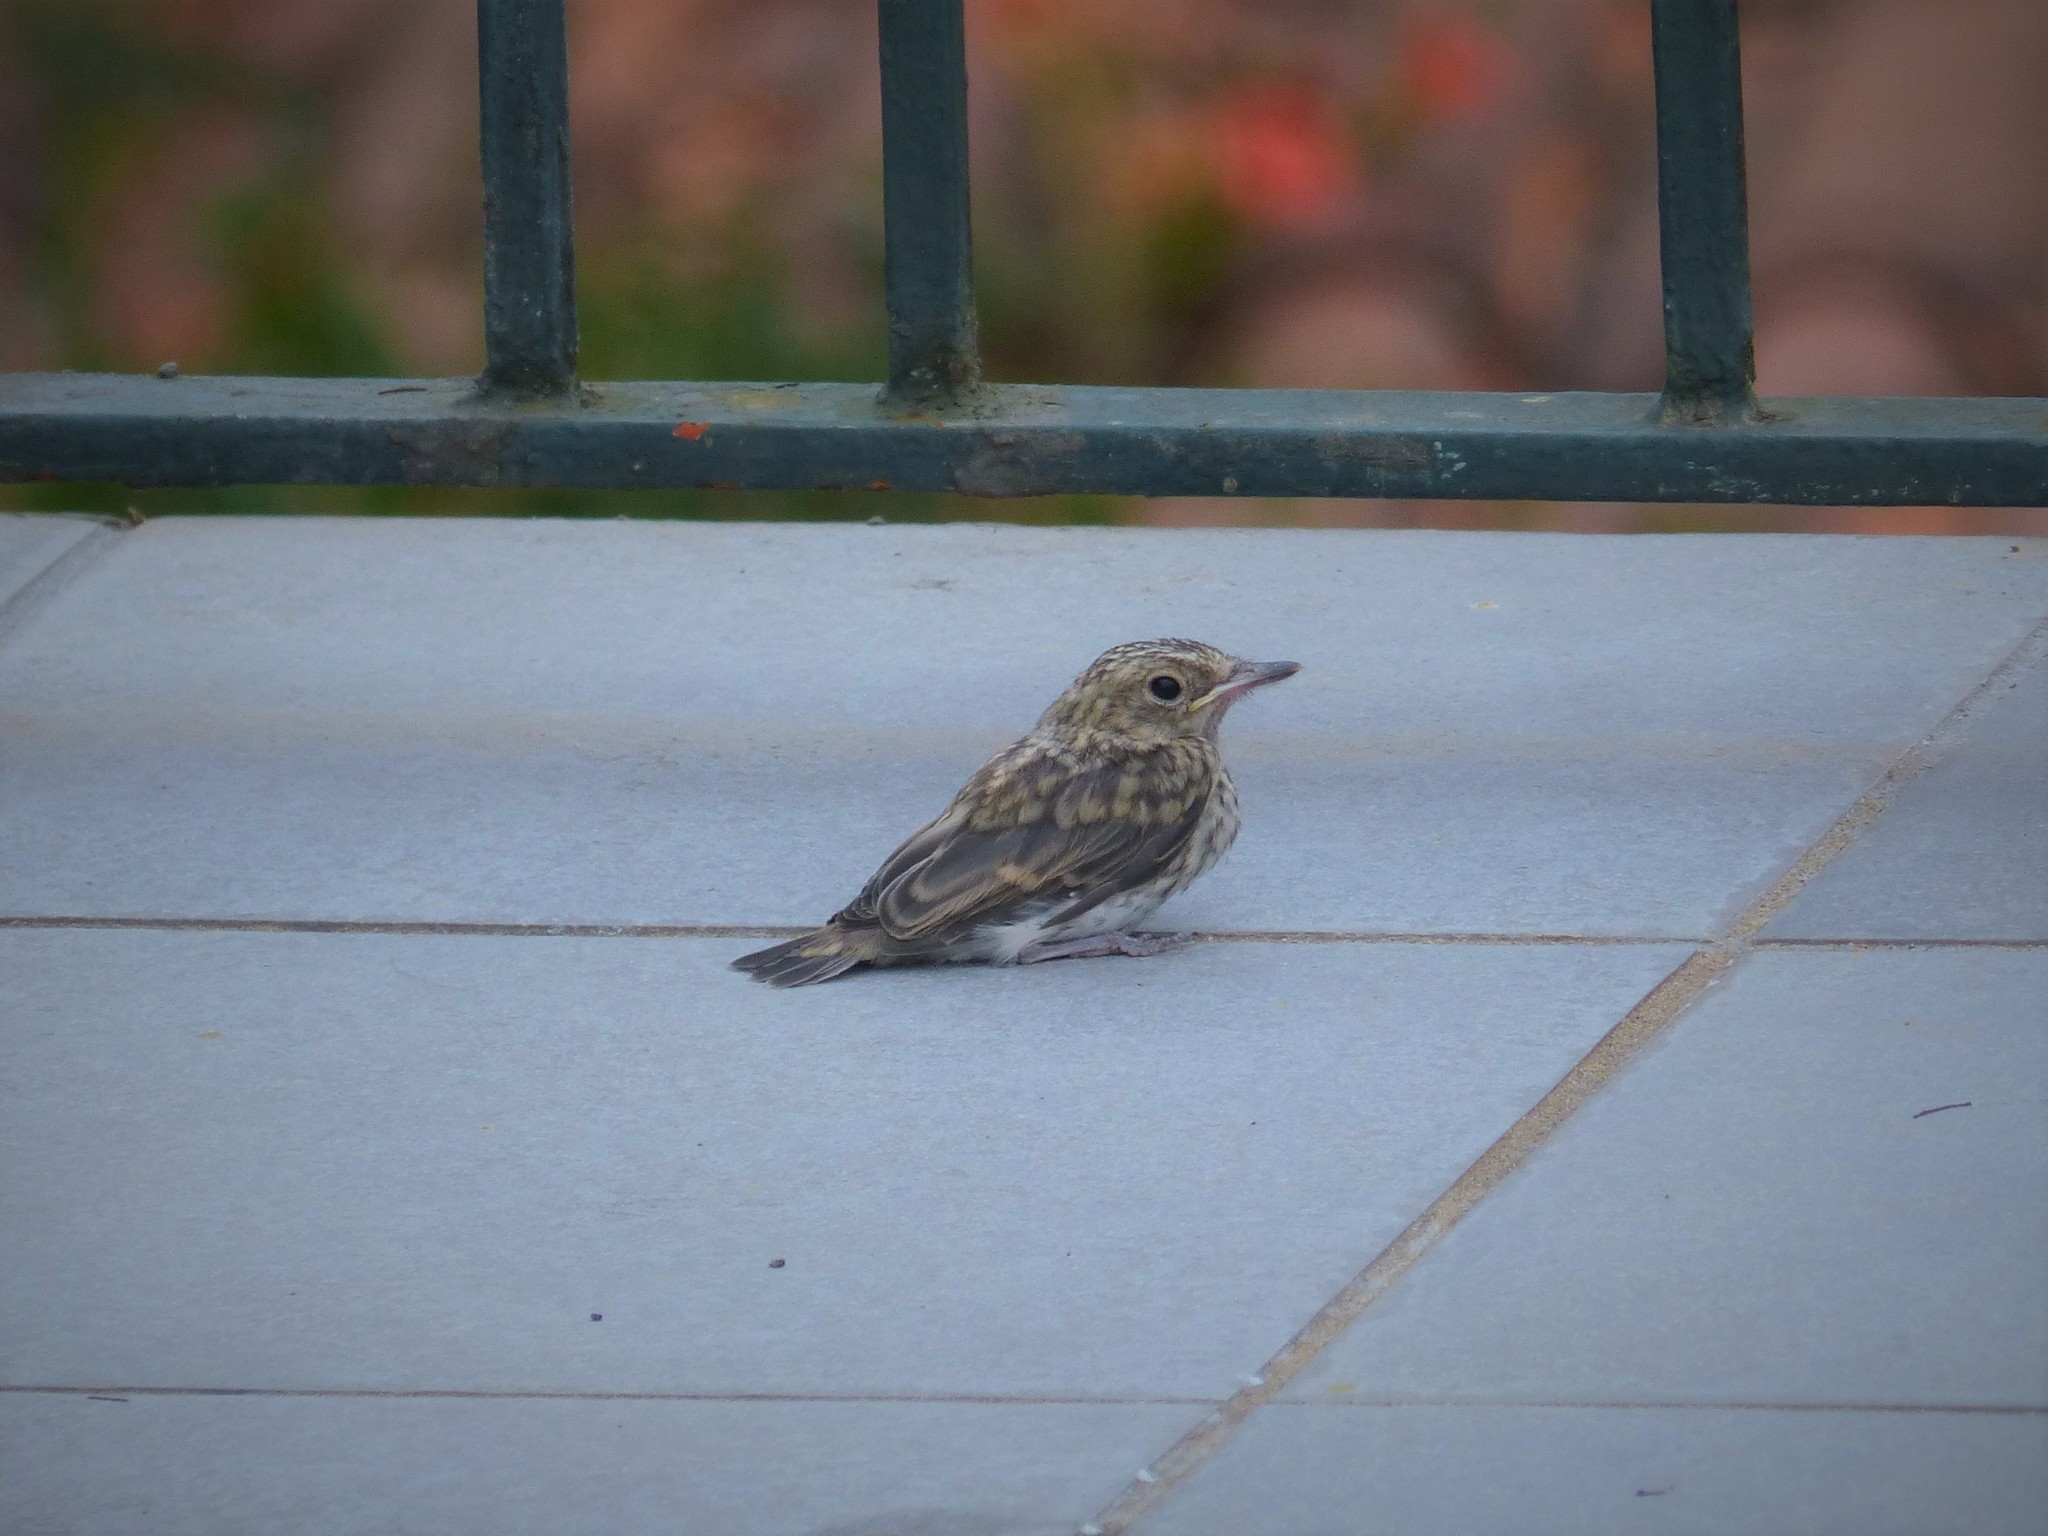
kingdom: Animalia
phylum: Chordata
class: Aves
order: Passeriformes
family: Muscicapidae
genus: Muscicapa
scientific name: Muscicapa striata
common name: Spotted flycatcher
